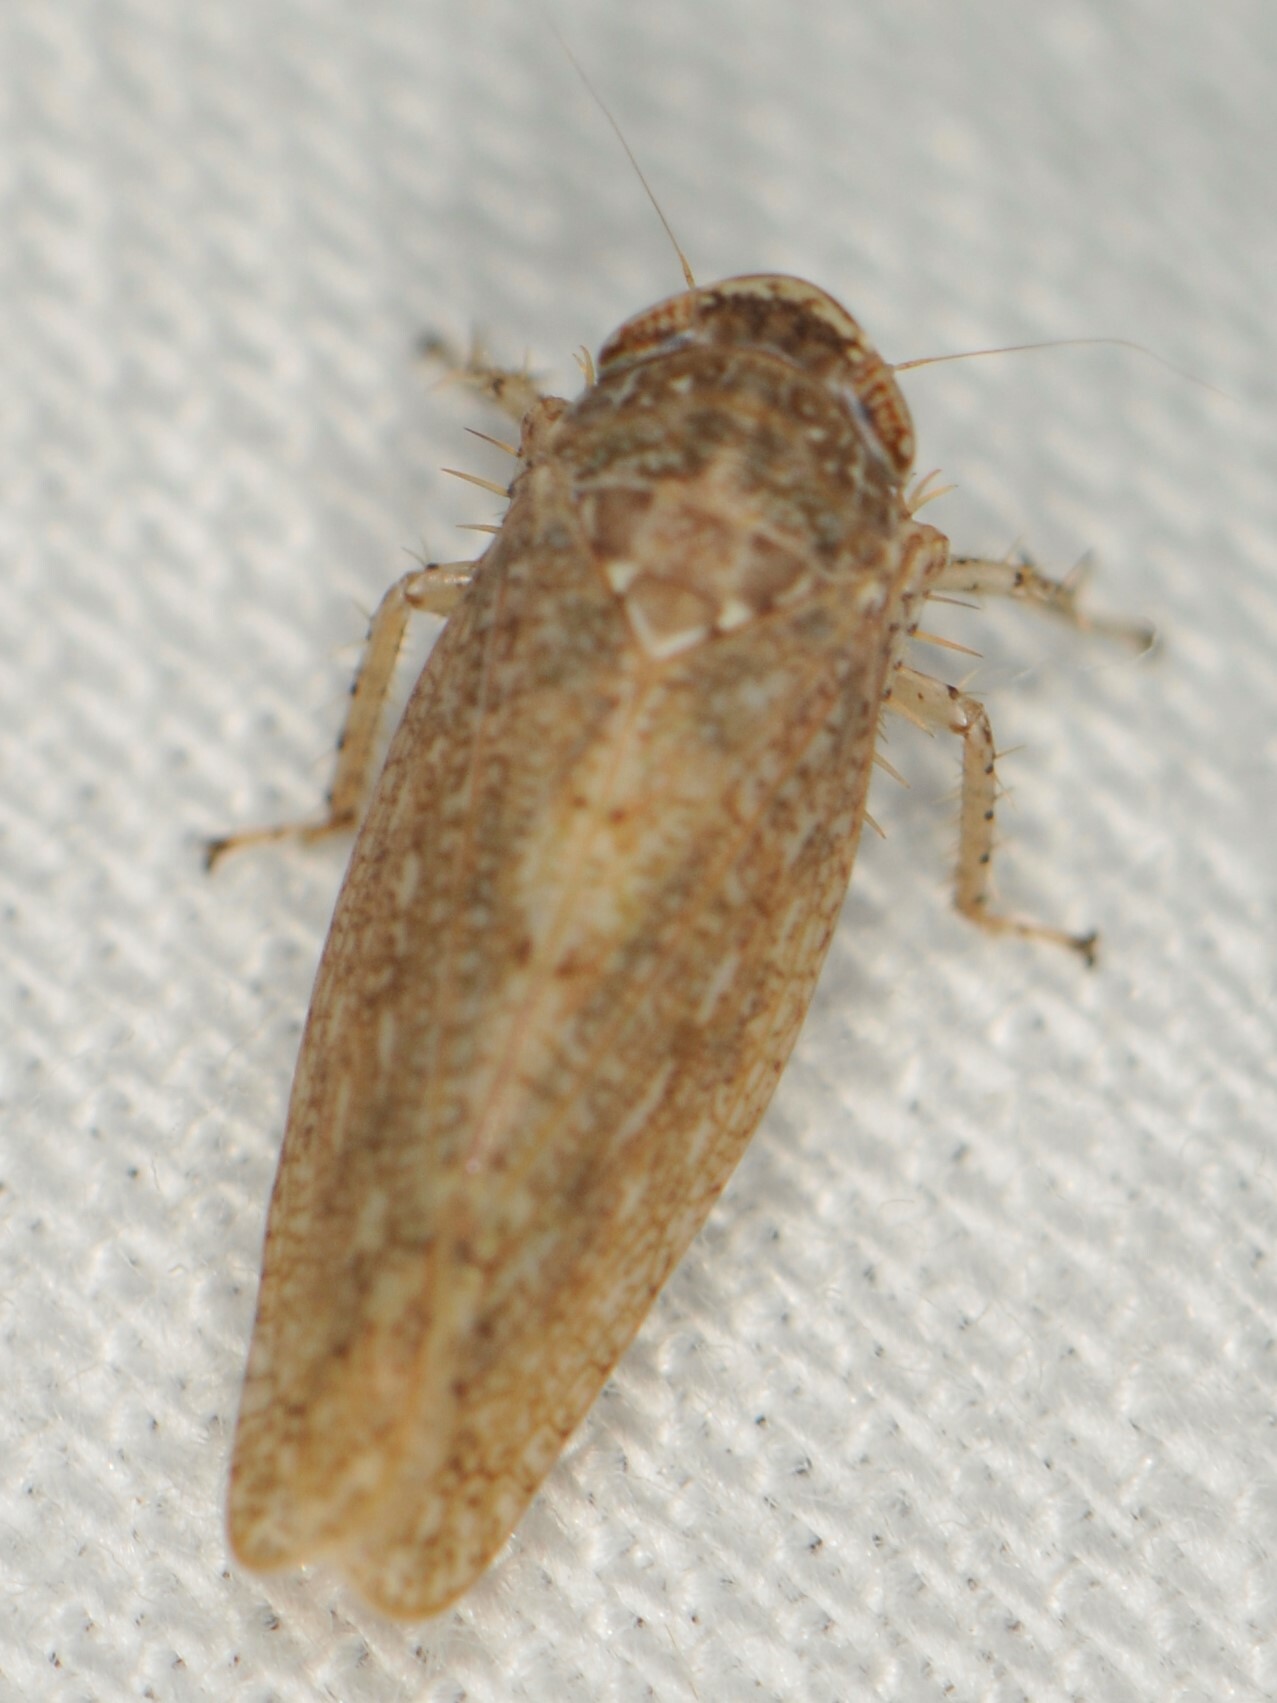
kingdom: Animalia
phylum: Arthropoda
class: Insecta
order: Hemiptera
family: Cicadellidae
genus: Texananus
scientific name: Texananus
